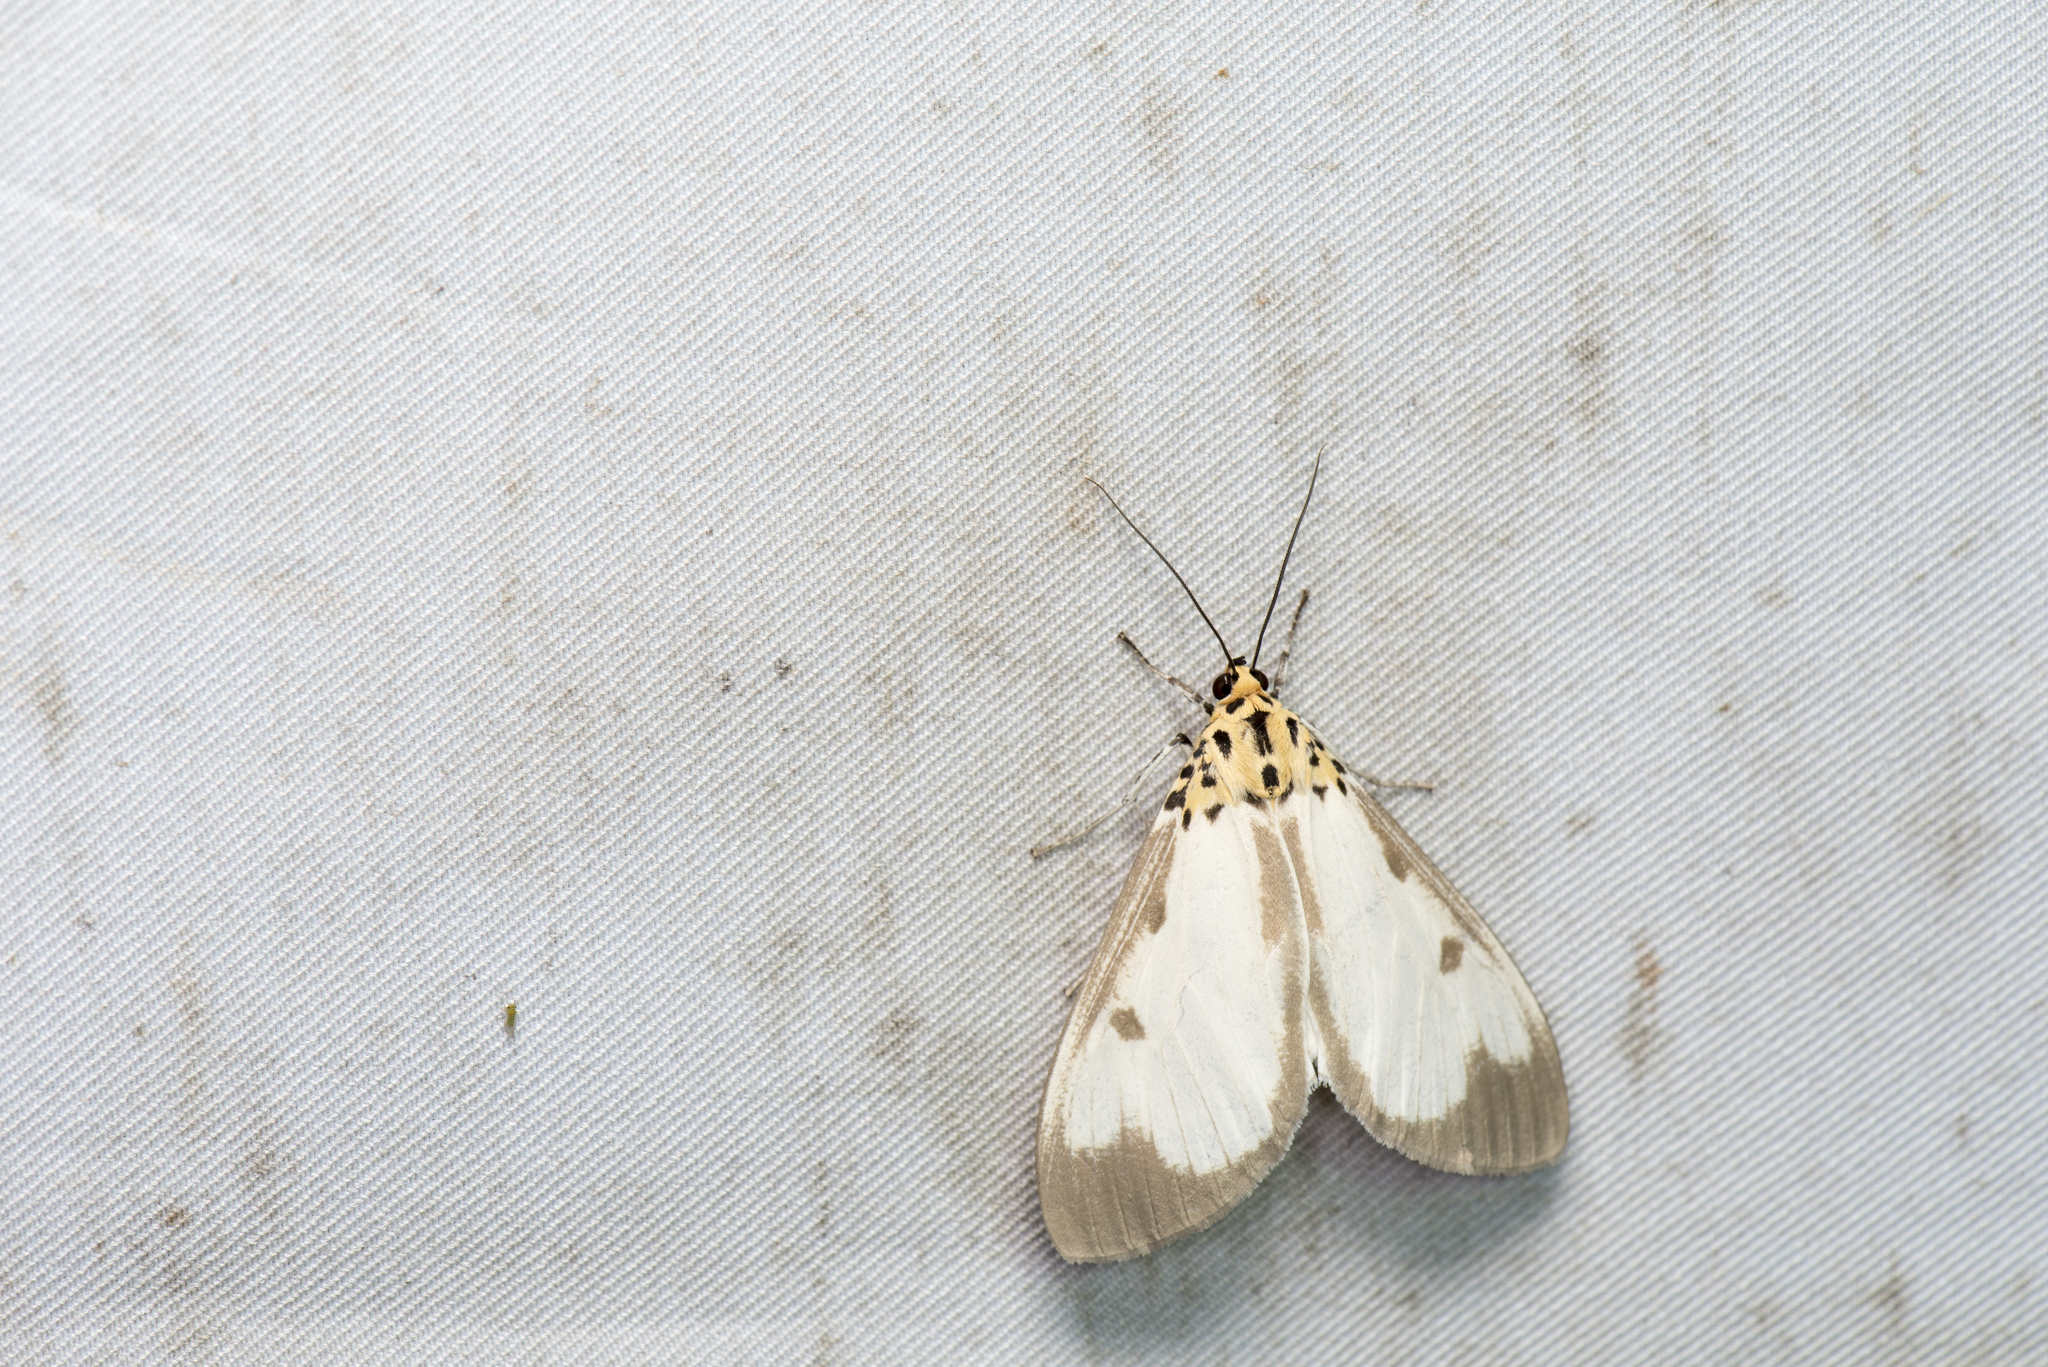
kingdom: Animalia
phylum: Arthropoda
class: Insecta
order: Lepidoptera
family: Erebidae
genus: Asota
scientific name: Asota plana
